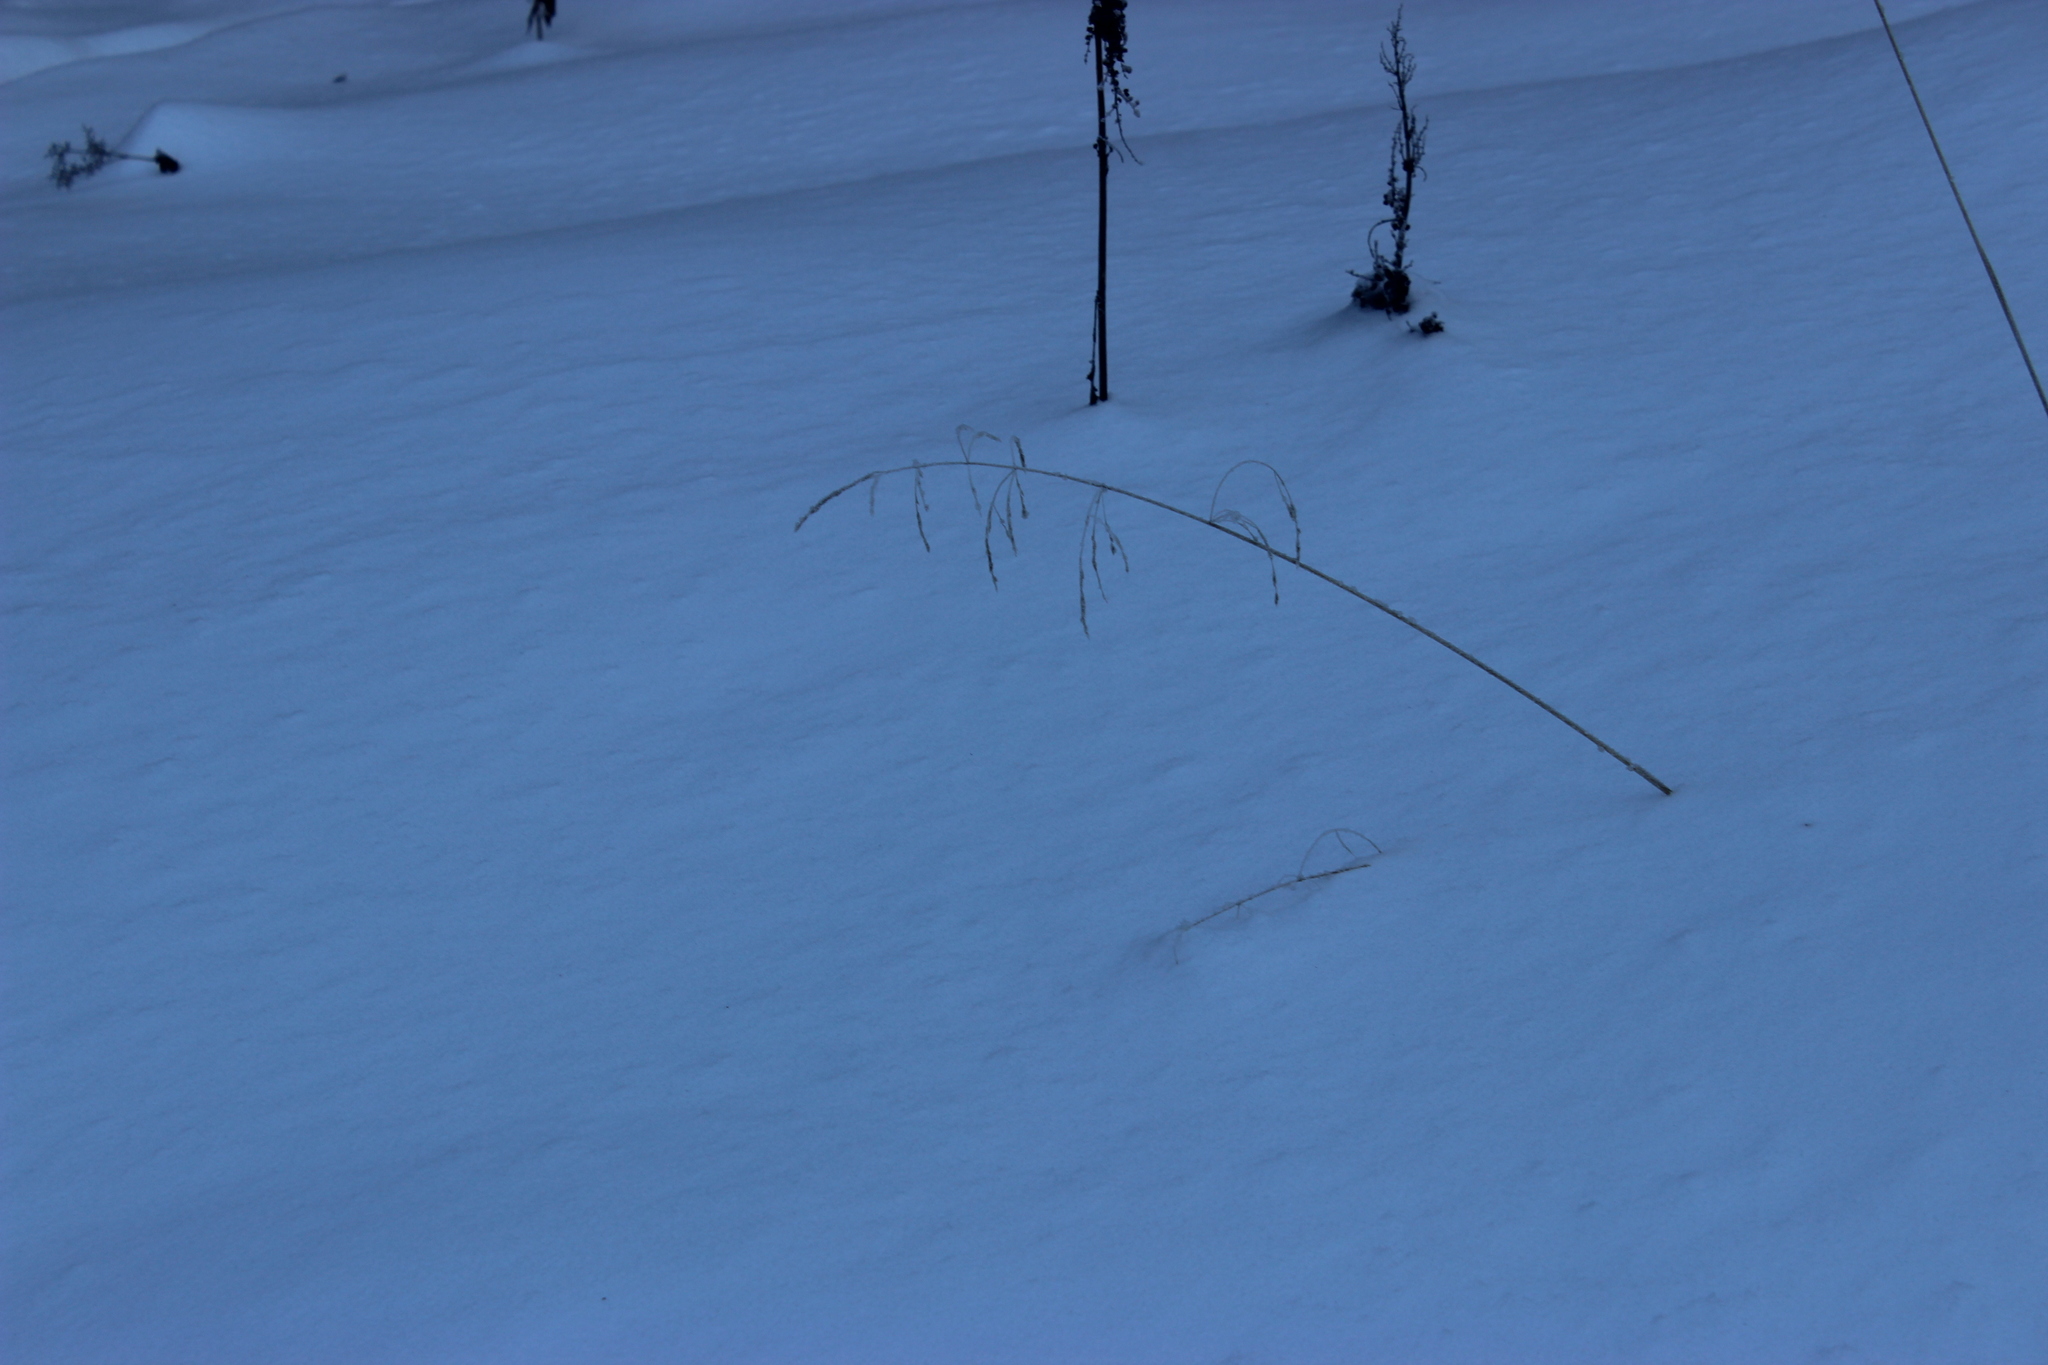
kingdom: Plantae
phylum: Tracheophyta
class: Liliopsida
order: Poales
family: Poaceae
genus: Deschampsia
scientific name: Deschampsia cespitosa
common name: Tufted hair-grass
